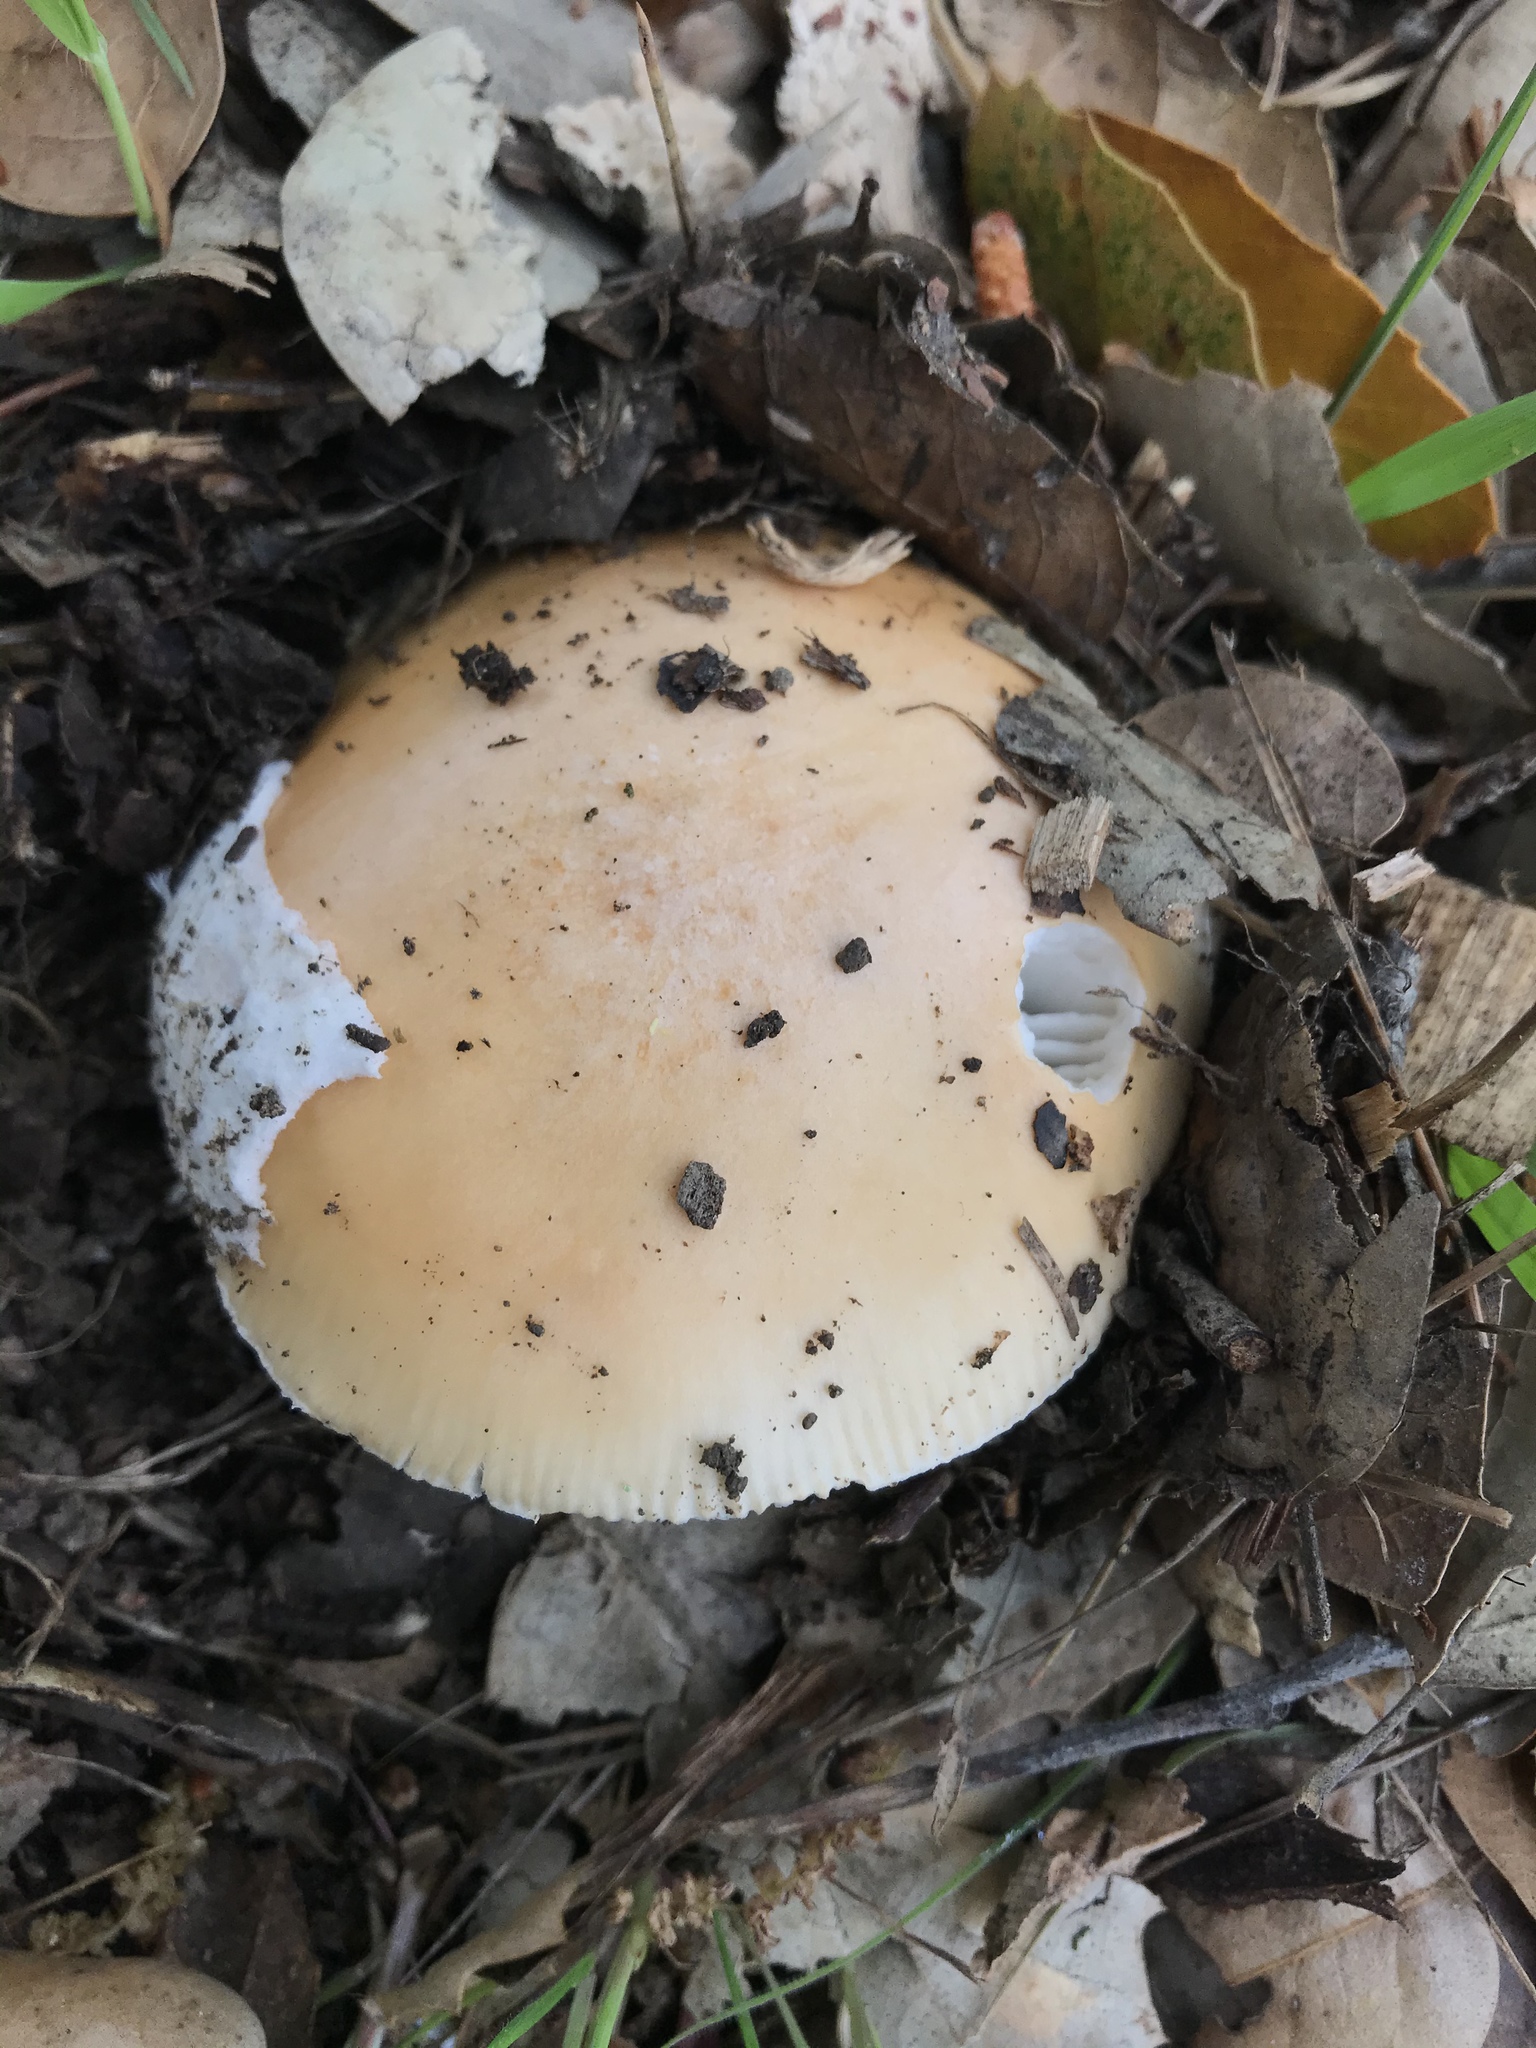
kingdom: Fungi
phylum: Basidiomycota
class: Agaricomycetes
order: Agaricales
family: Amanitaceae
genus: Amanita
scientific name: Amanita velosa
